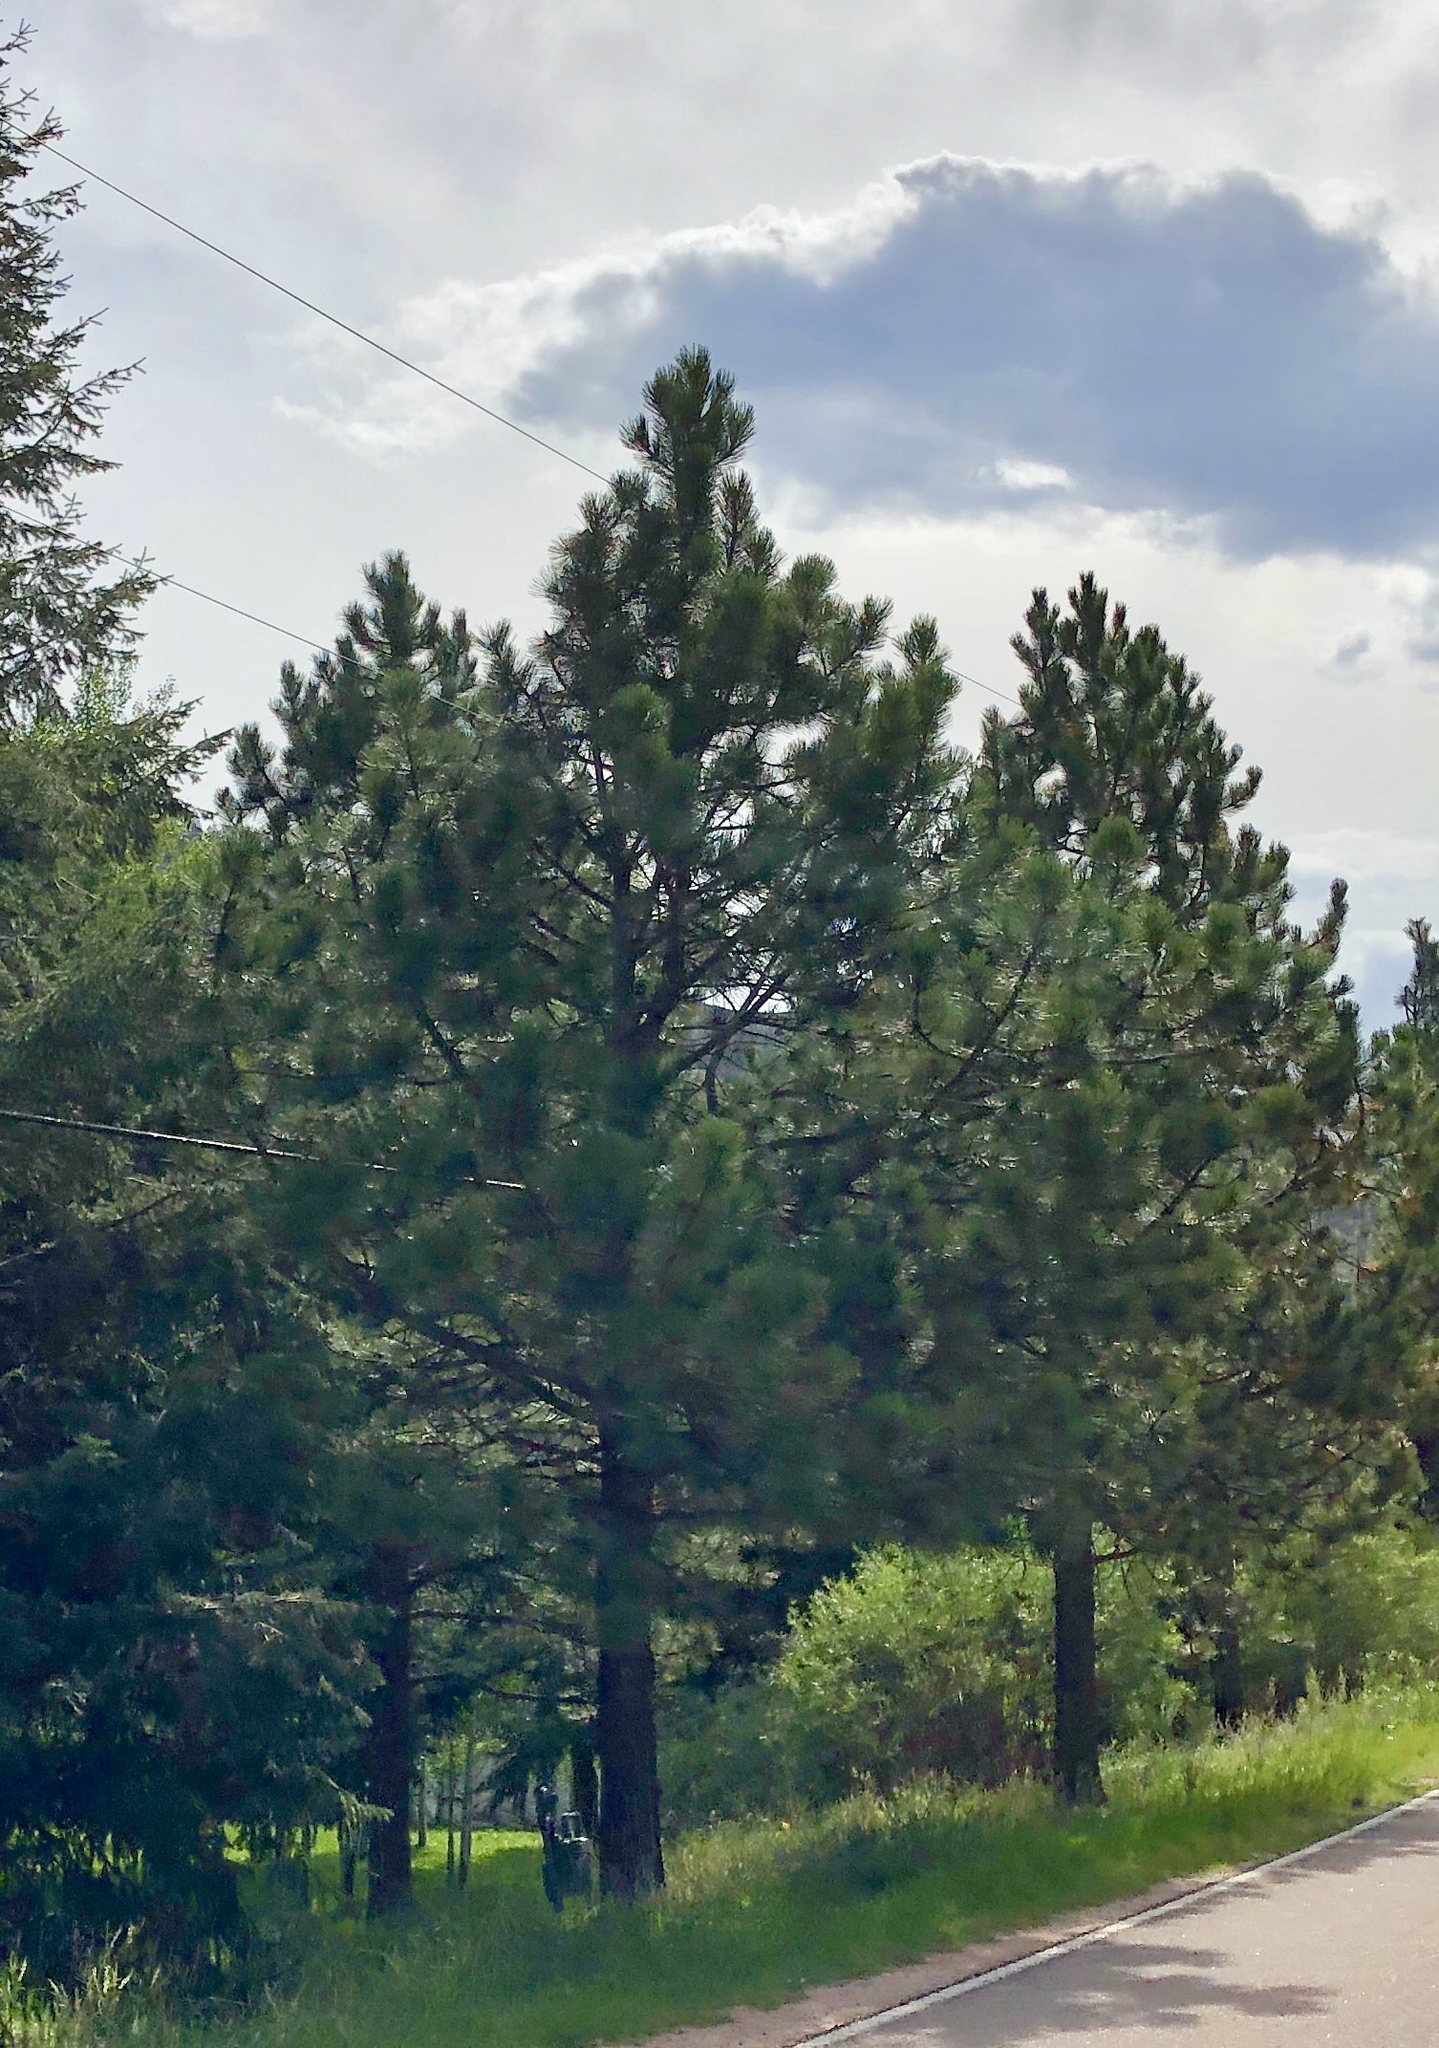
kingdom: Plantae
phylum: Tracheophyta
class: Pinopsida
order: Pinales
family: Pinaceae
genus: Pinus
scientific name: Pinus ponderosa
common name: Western yellow-pine
